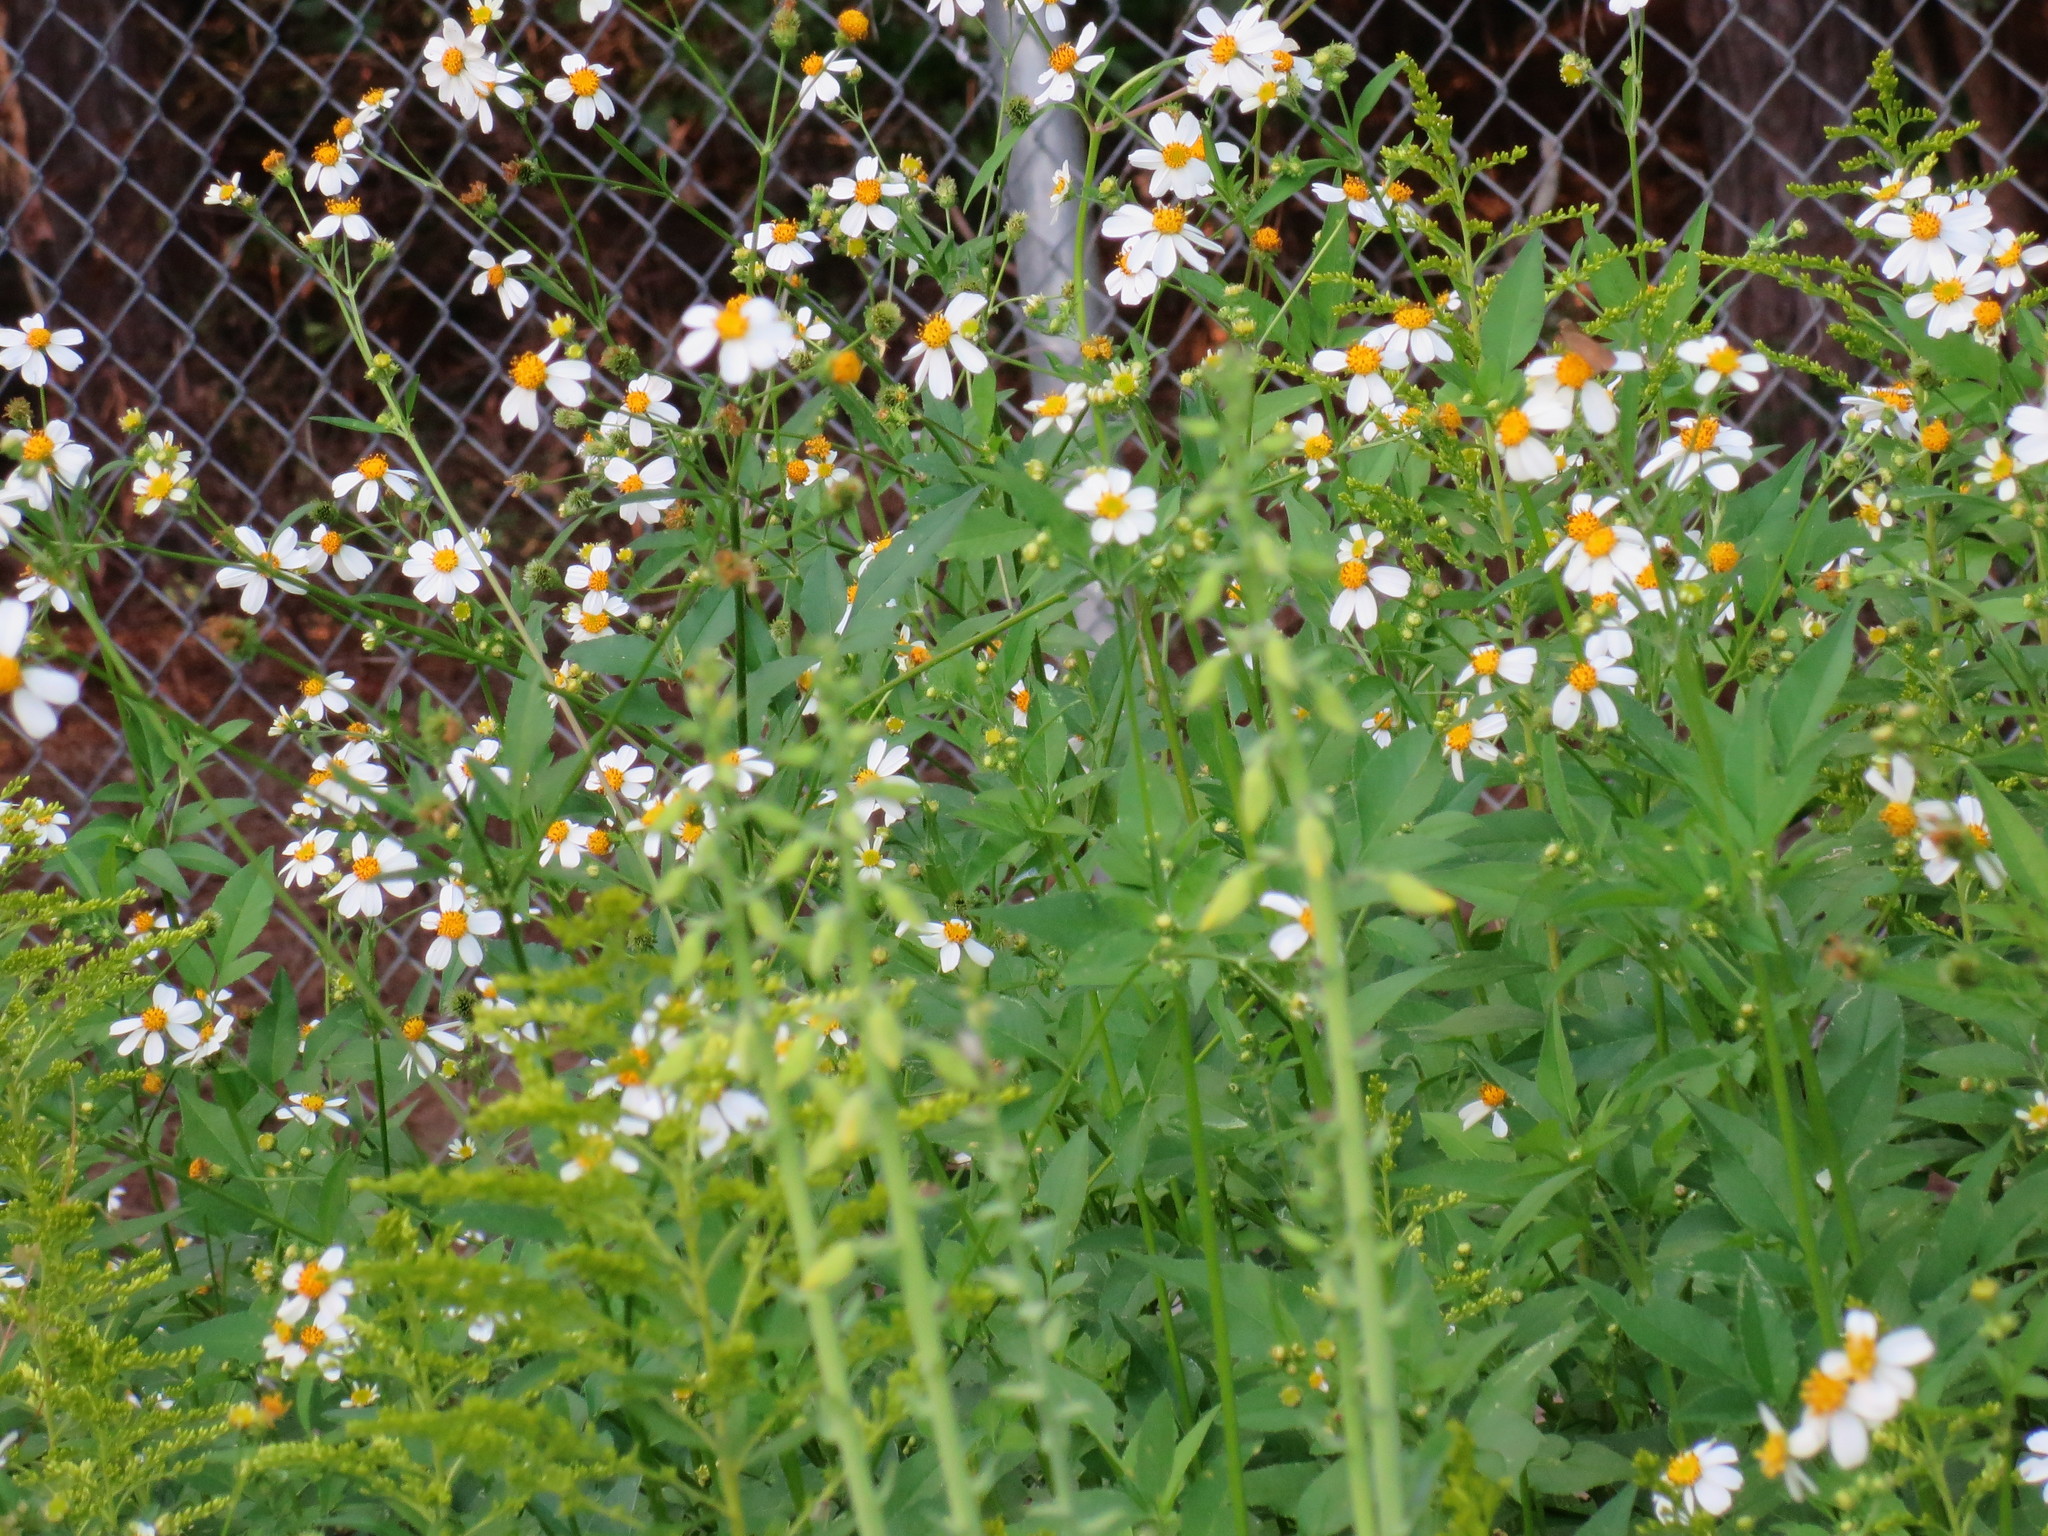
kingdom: Plantae
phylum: Tracheophyta
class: Magnoliopsida
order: Asterales
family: Asteraceae
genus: Bidens
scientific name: Bidens alba
